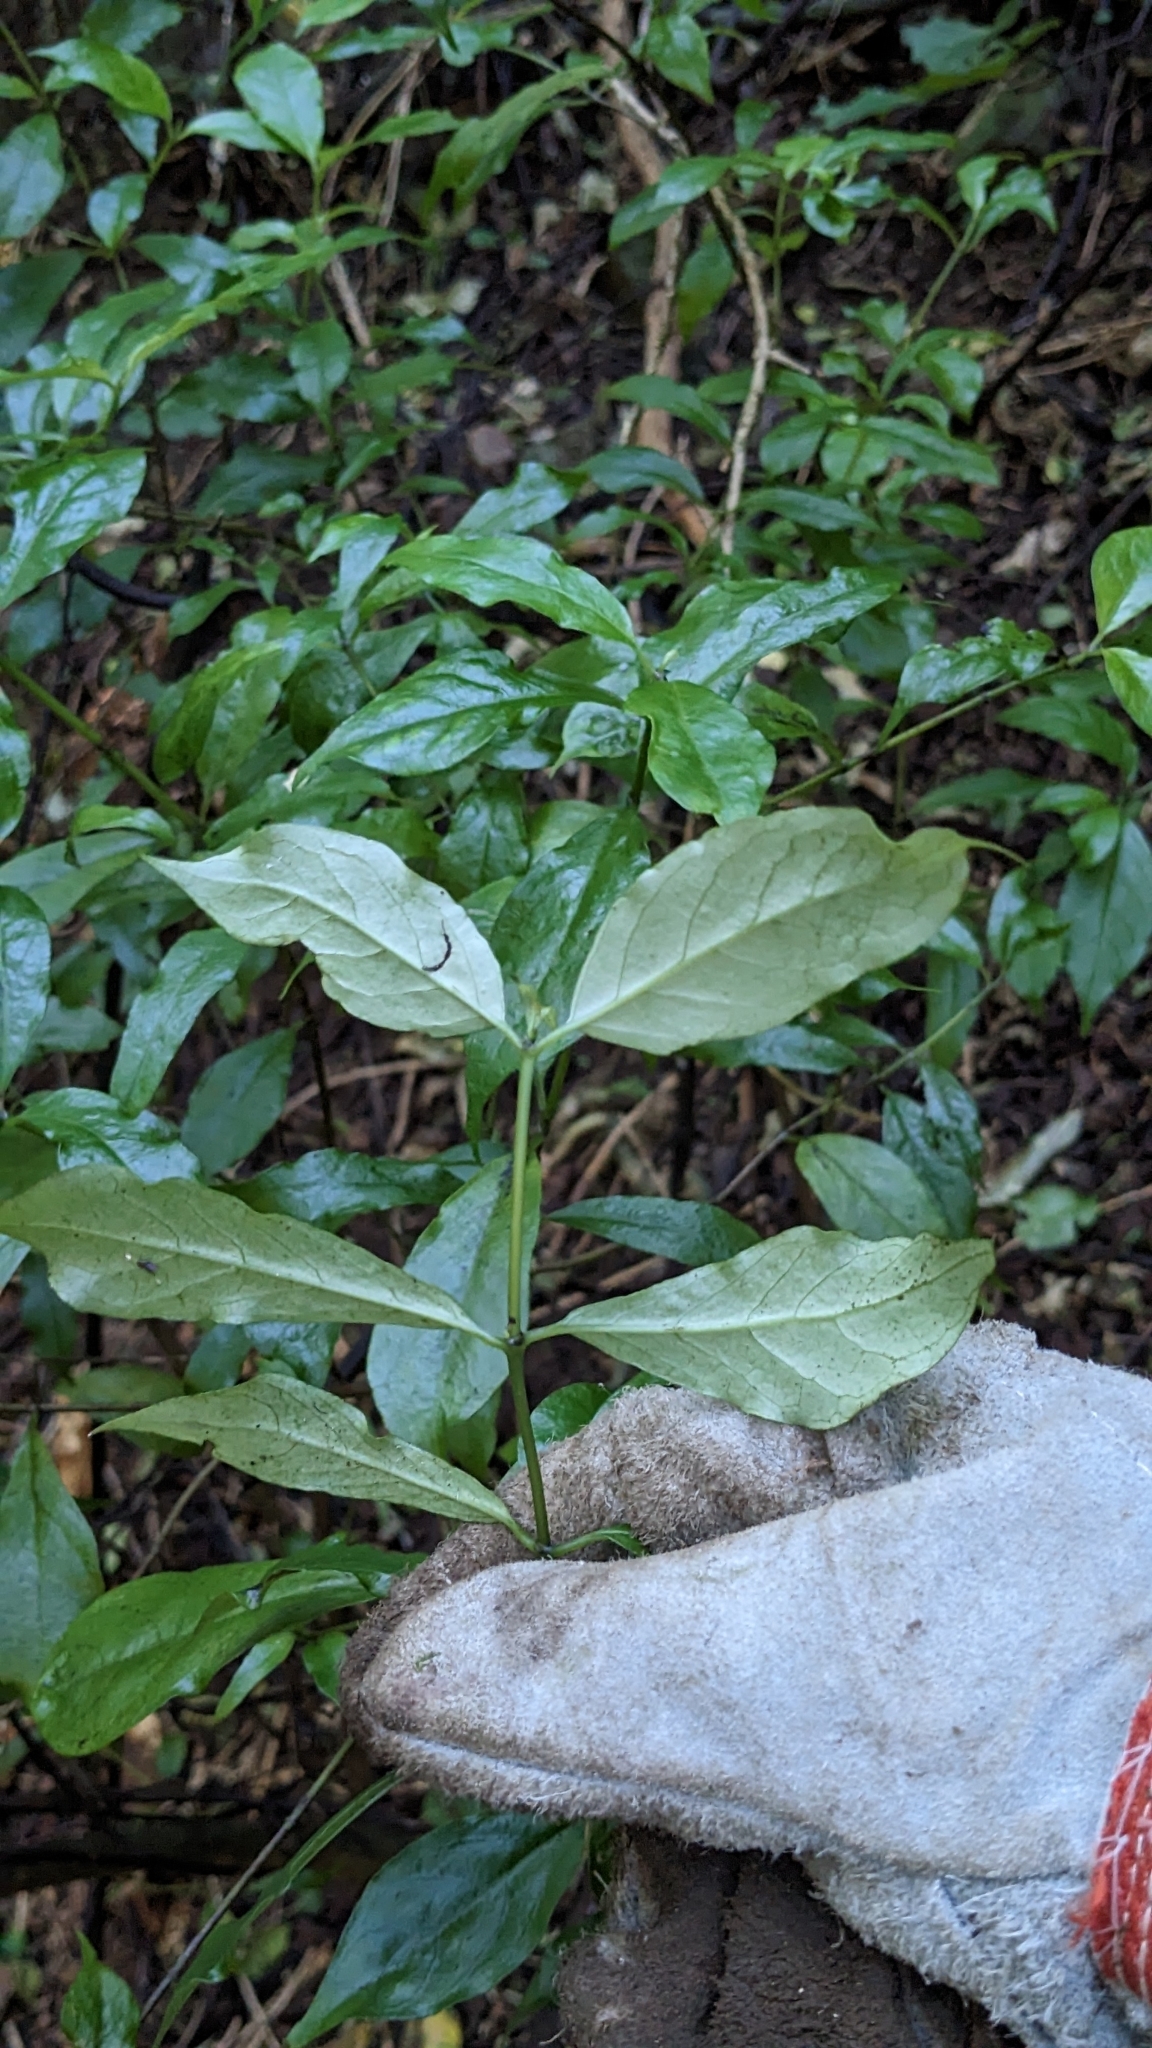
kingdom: Plantae
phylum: Tracheophyta
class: Magnoliopsida
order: Gentianales
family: Loganiaceae
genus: Geniostoma
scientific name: Geniostoma ligustrifolium
